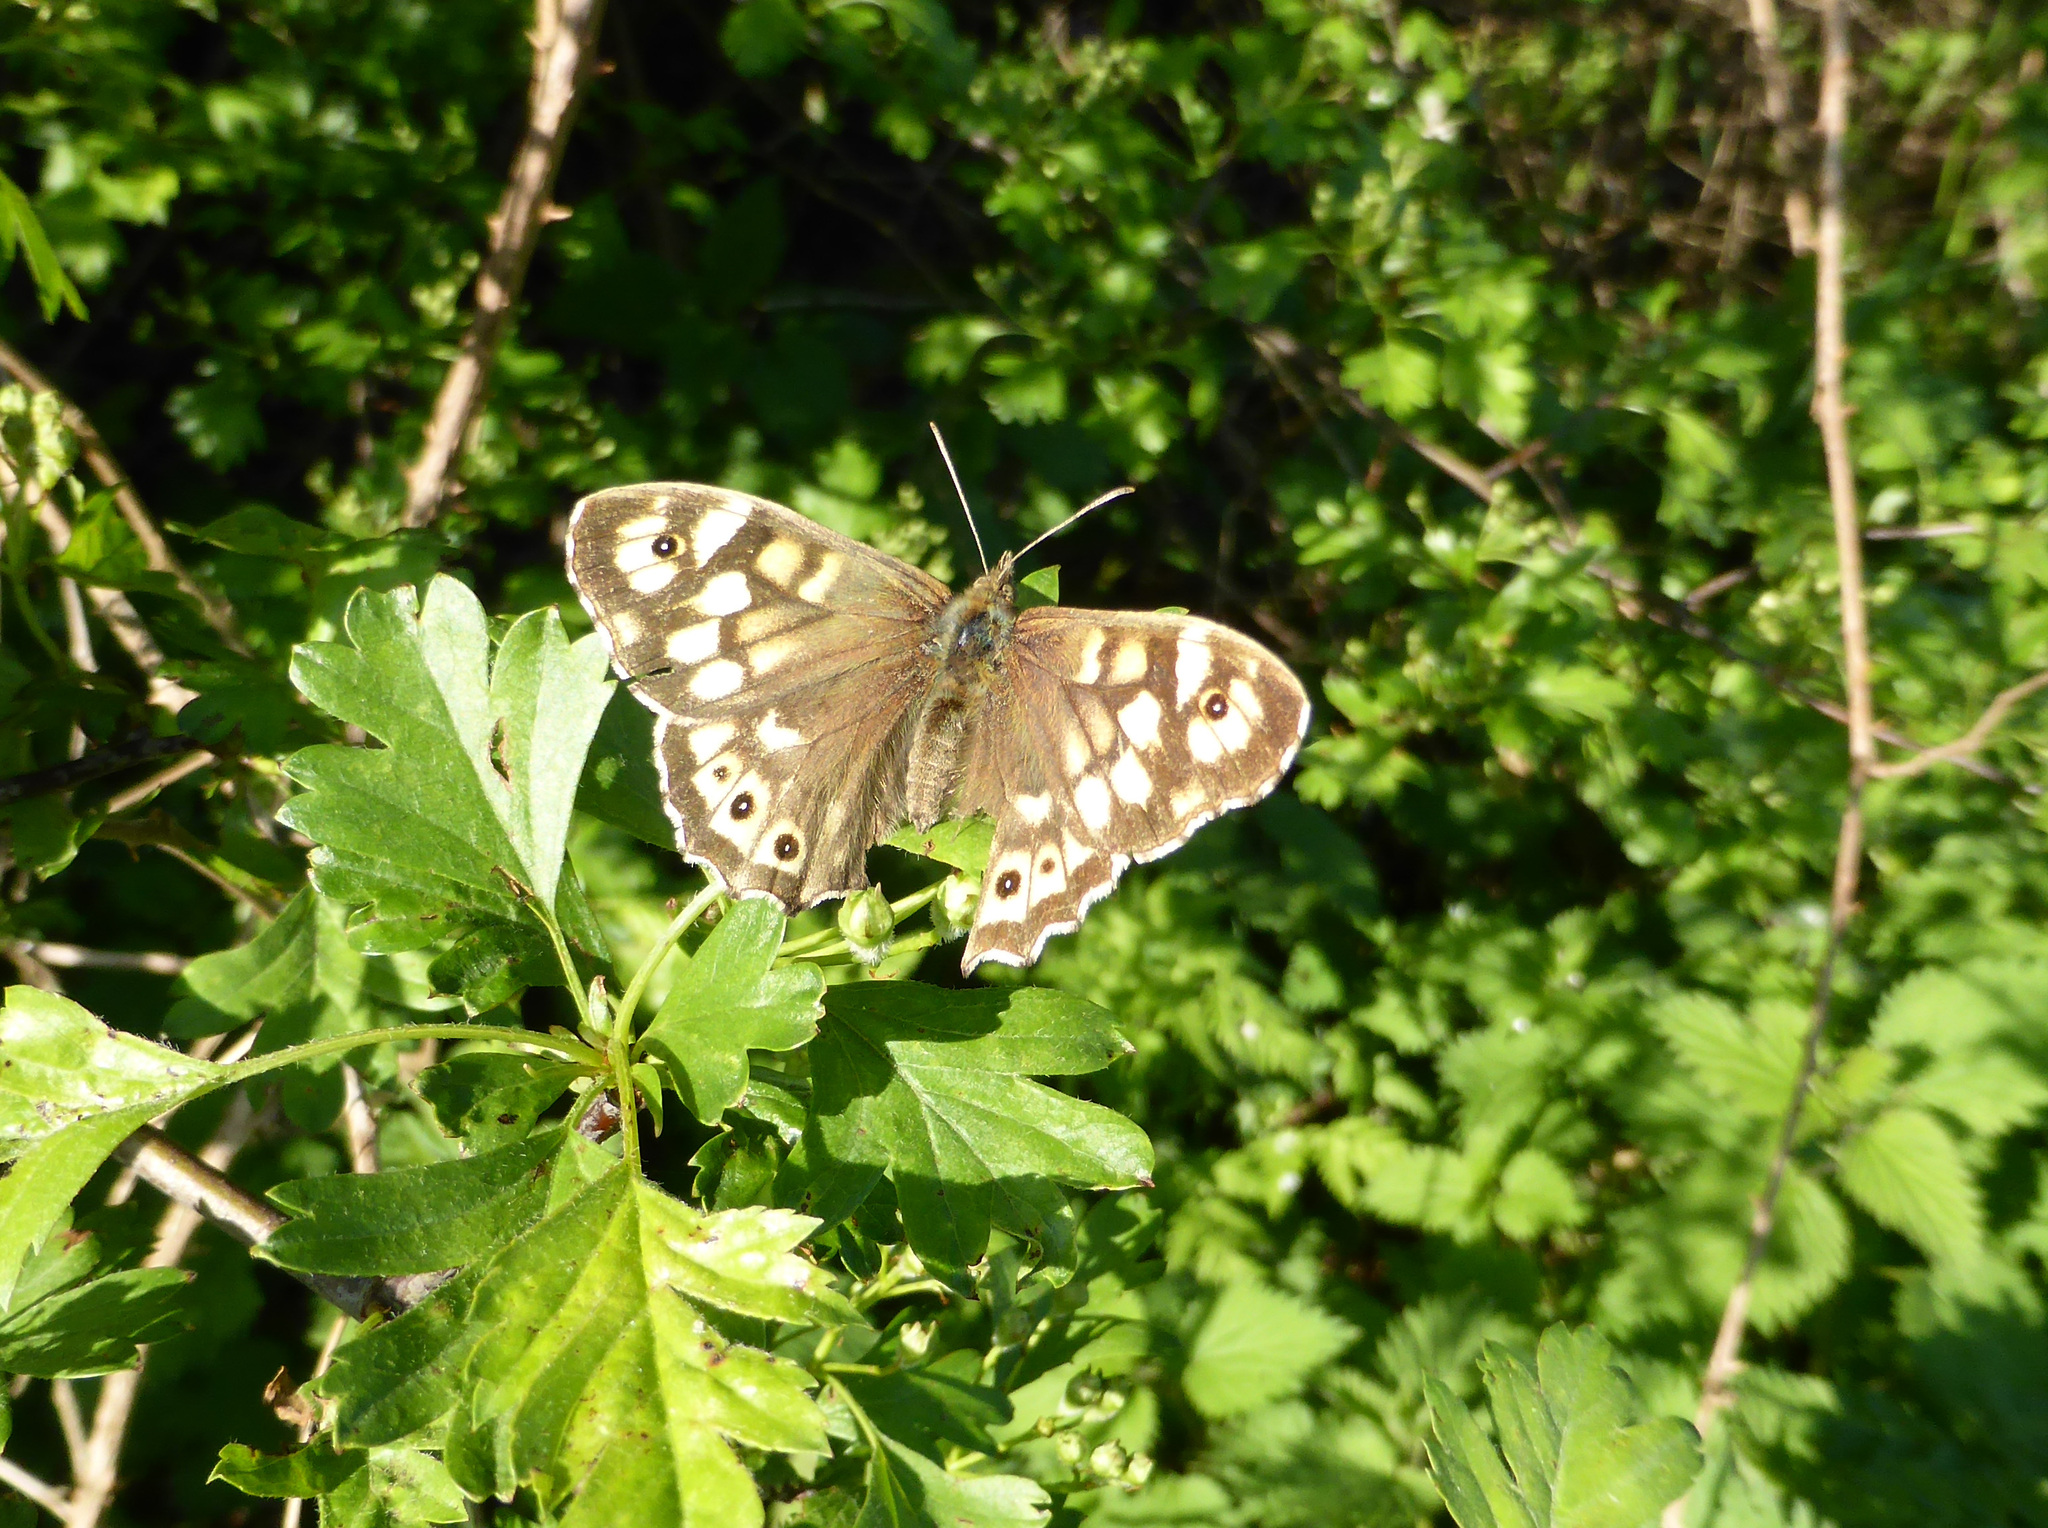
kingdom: Animalia
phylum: Arthropoda
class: Insecta
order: Lepidoptera
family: Nymphalidae
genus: Pararge
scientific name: Pararge aegeria
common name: Speckled wood
